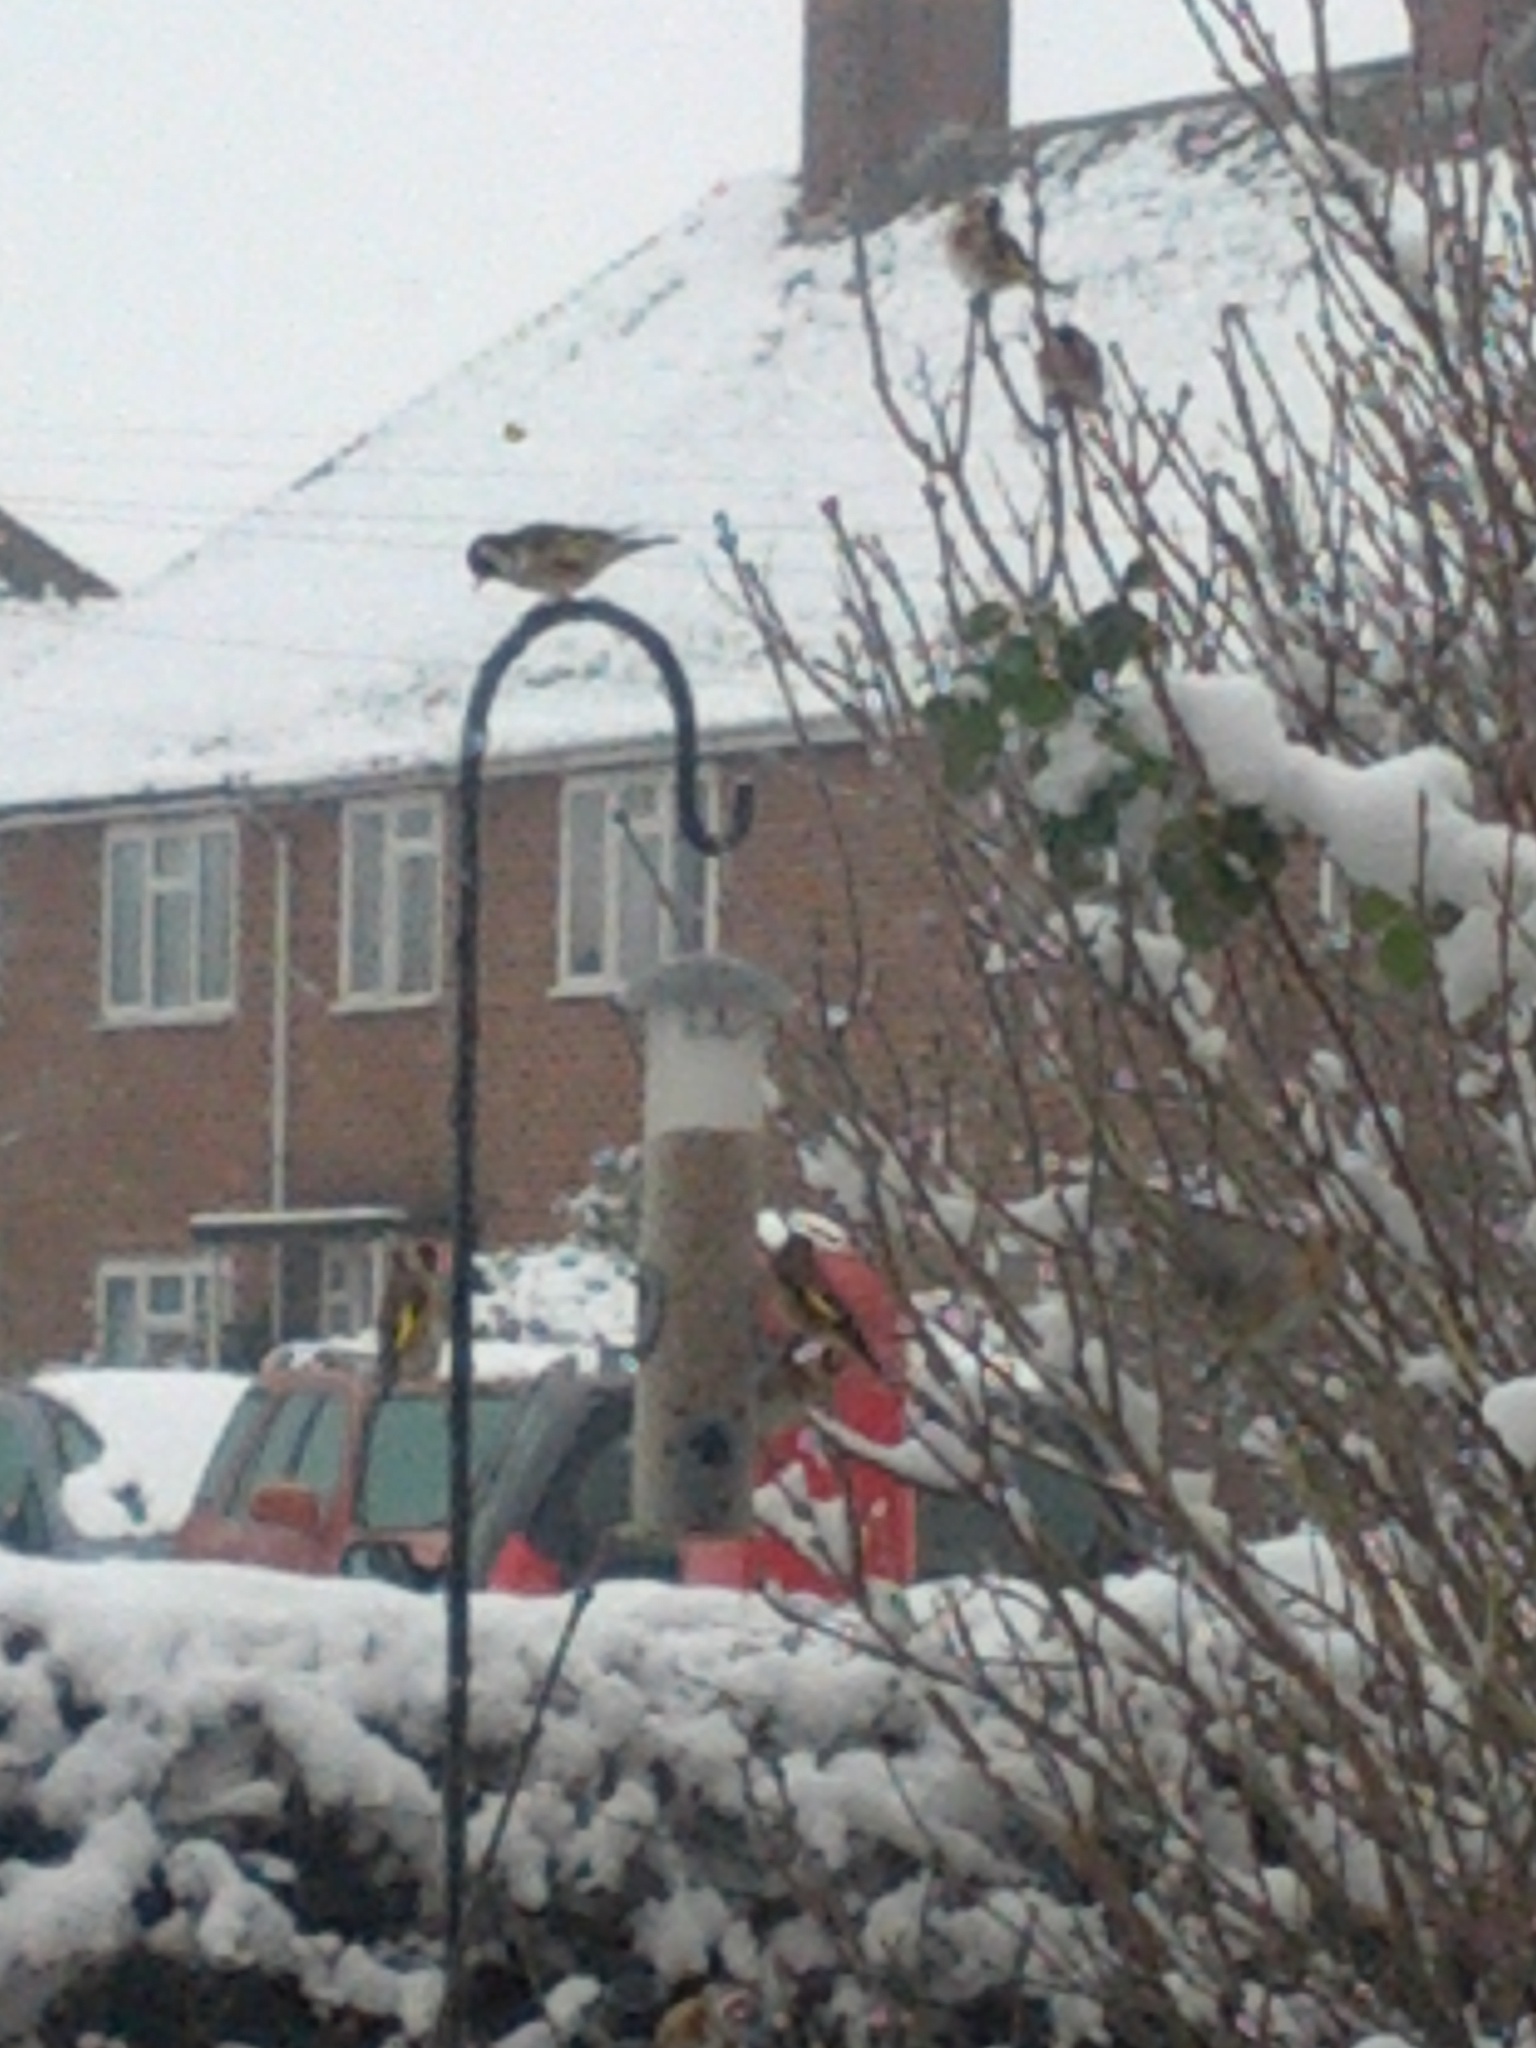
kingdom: Animalia
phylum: Chordata
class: Aves
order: Passeriformes
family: Fringillidae
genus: Carduelis
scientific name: Carduelis carduelis
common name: European goldfinch
